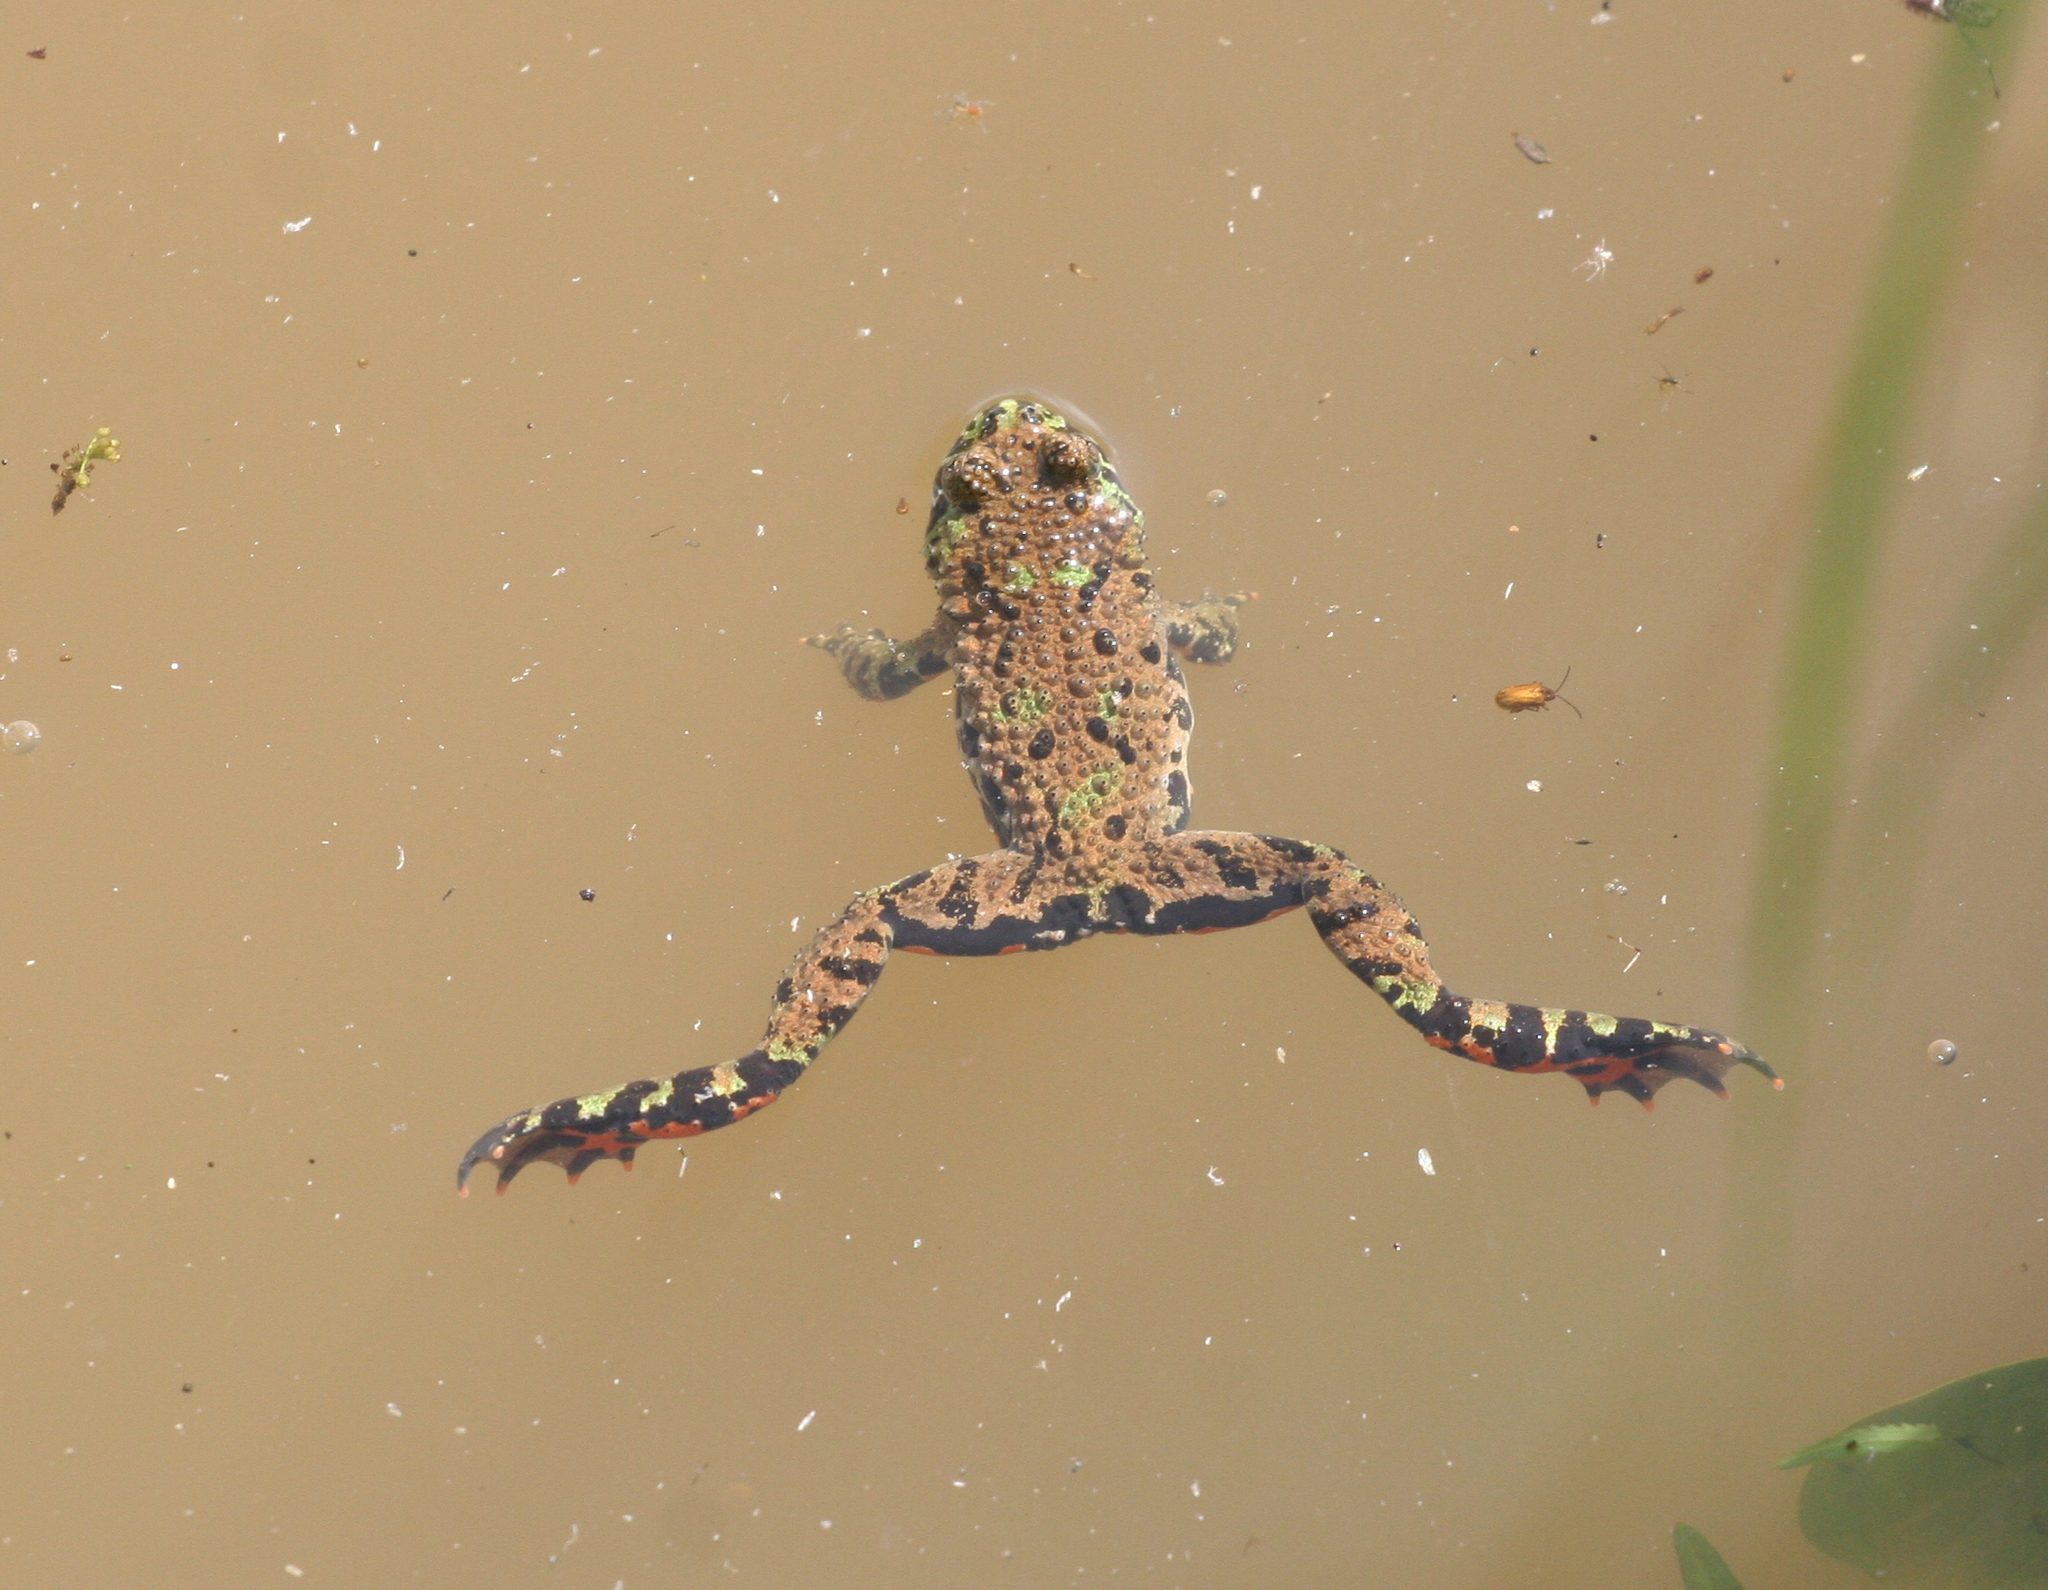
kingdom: Animalia
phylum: Chordata
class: Amphibia
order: Anura
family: Bombinatoridae
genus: Bombina
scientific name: Bombina orientalis
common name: Oriental firebelly toad
